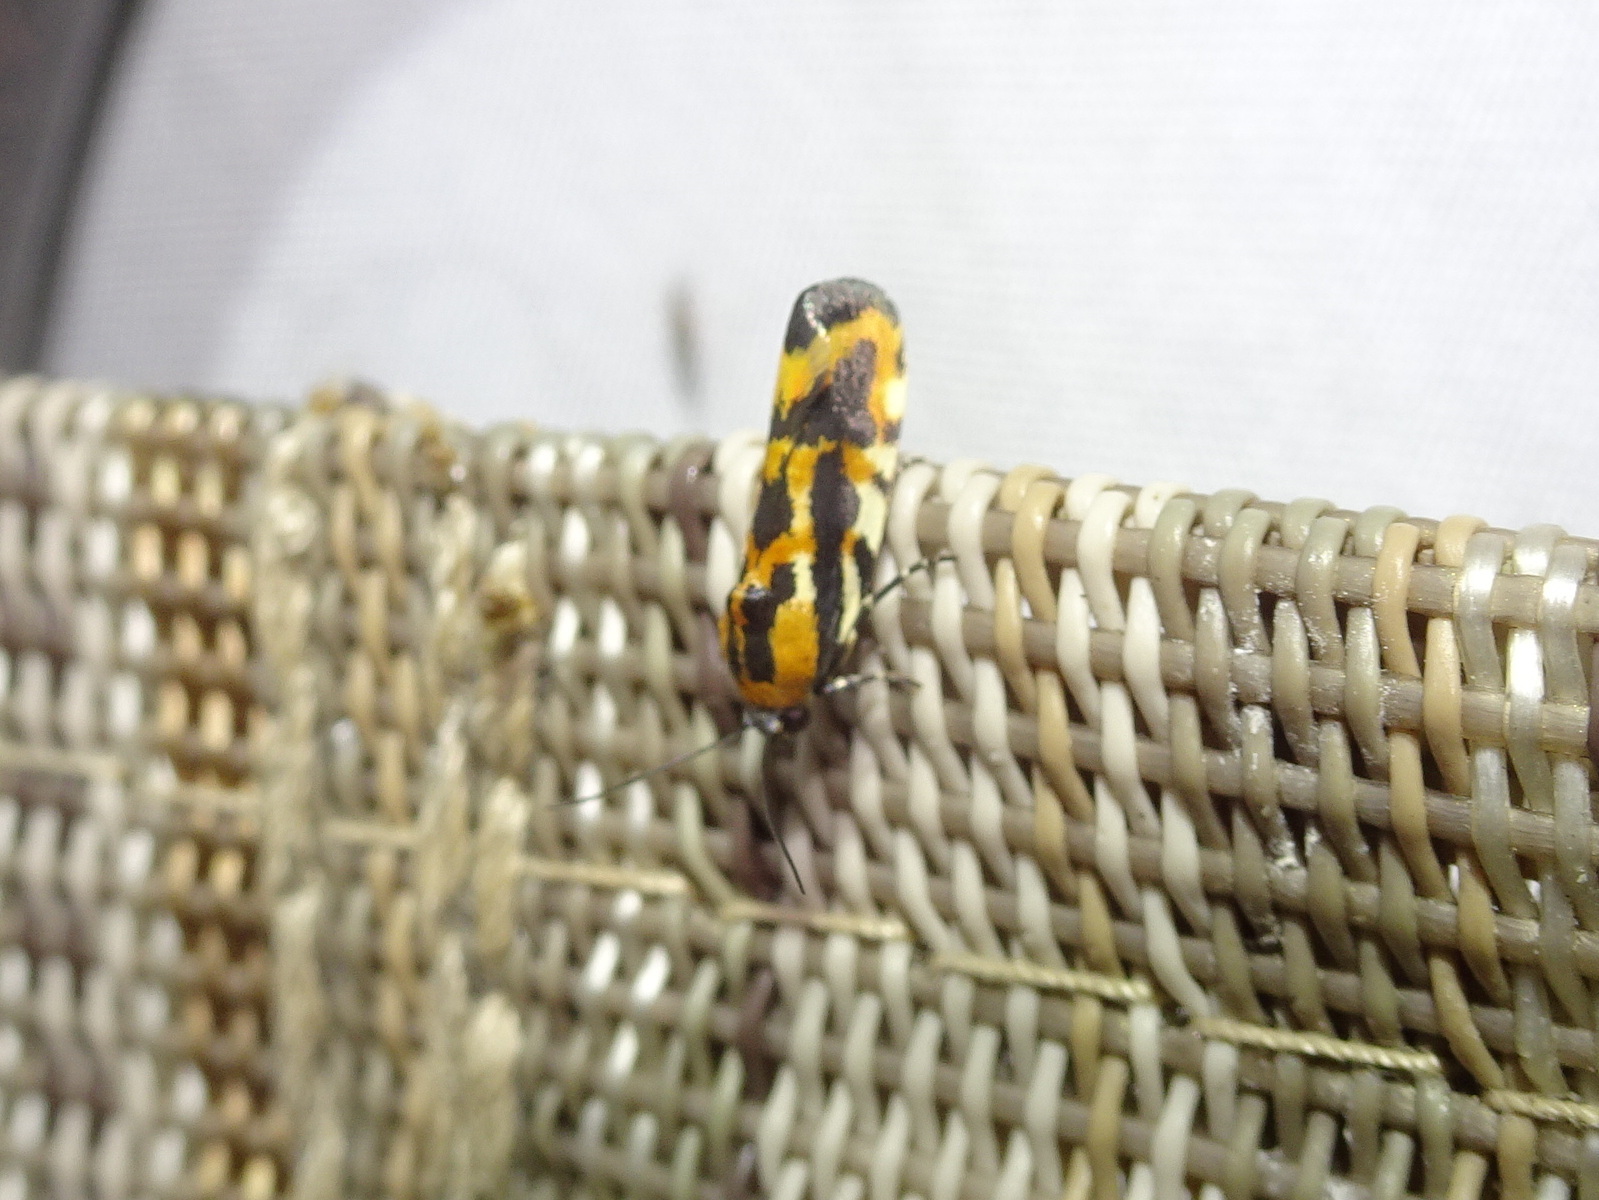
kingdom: Animalia
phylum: Arthropoda
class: Insecta
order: Lepidoptera
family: Noctuidae
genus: Acontia
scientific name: Acontia leo
